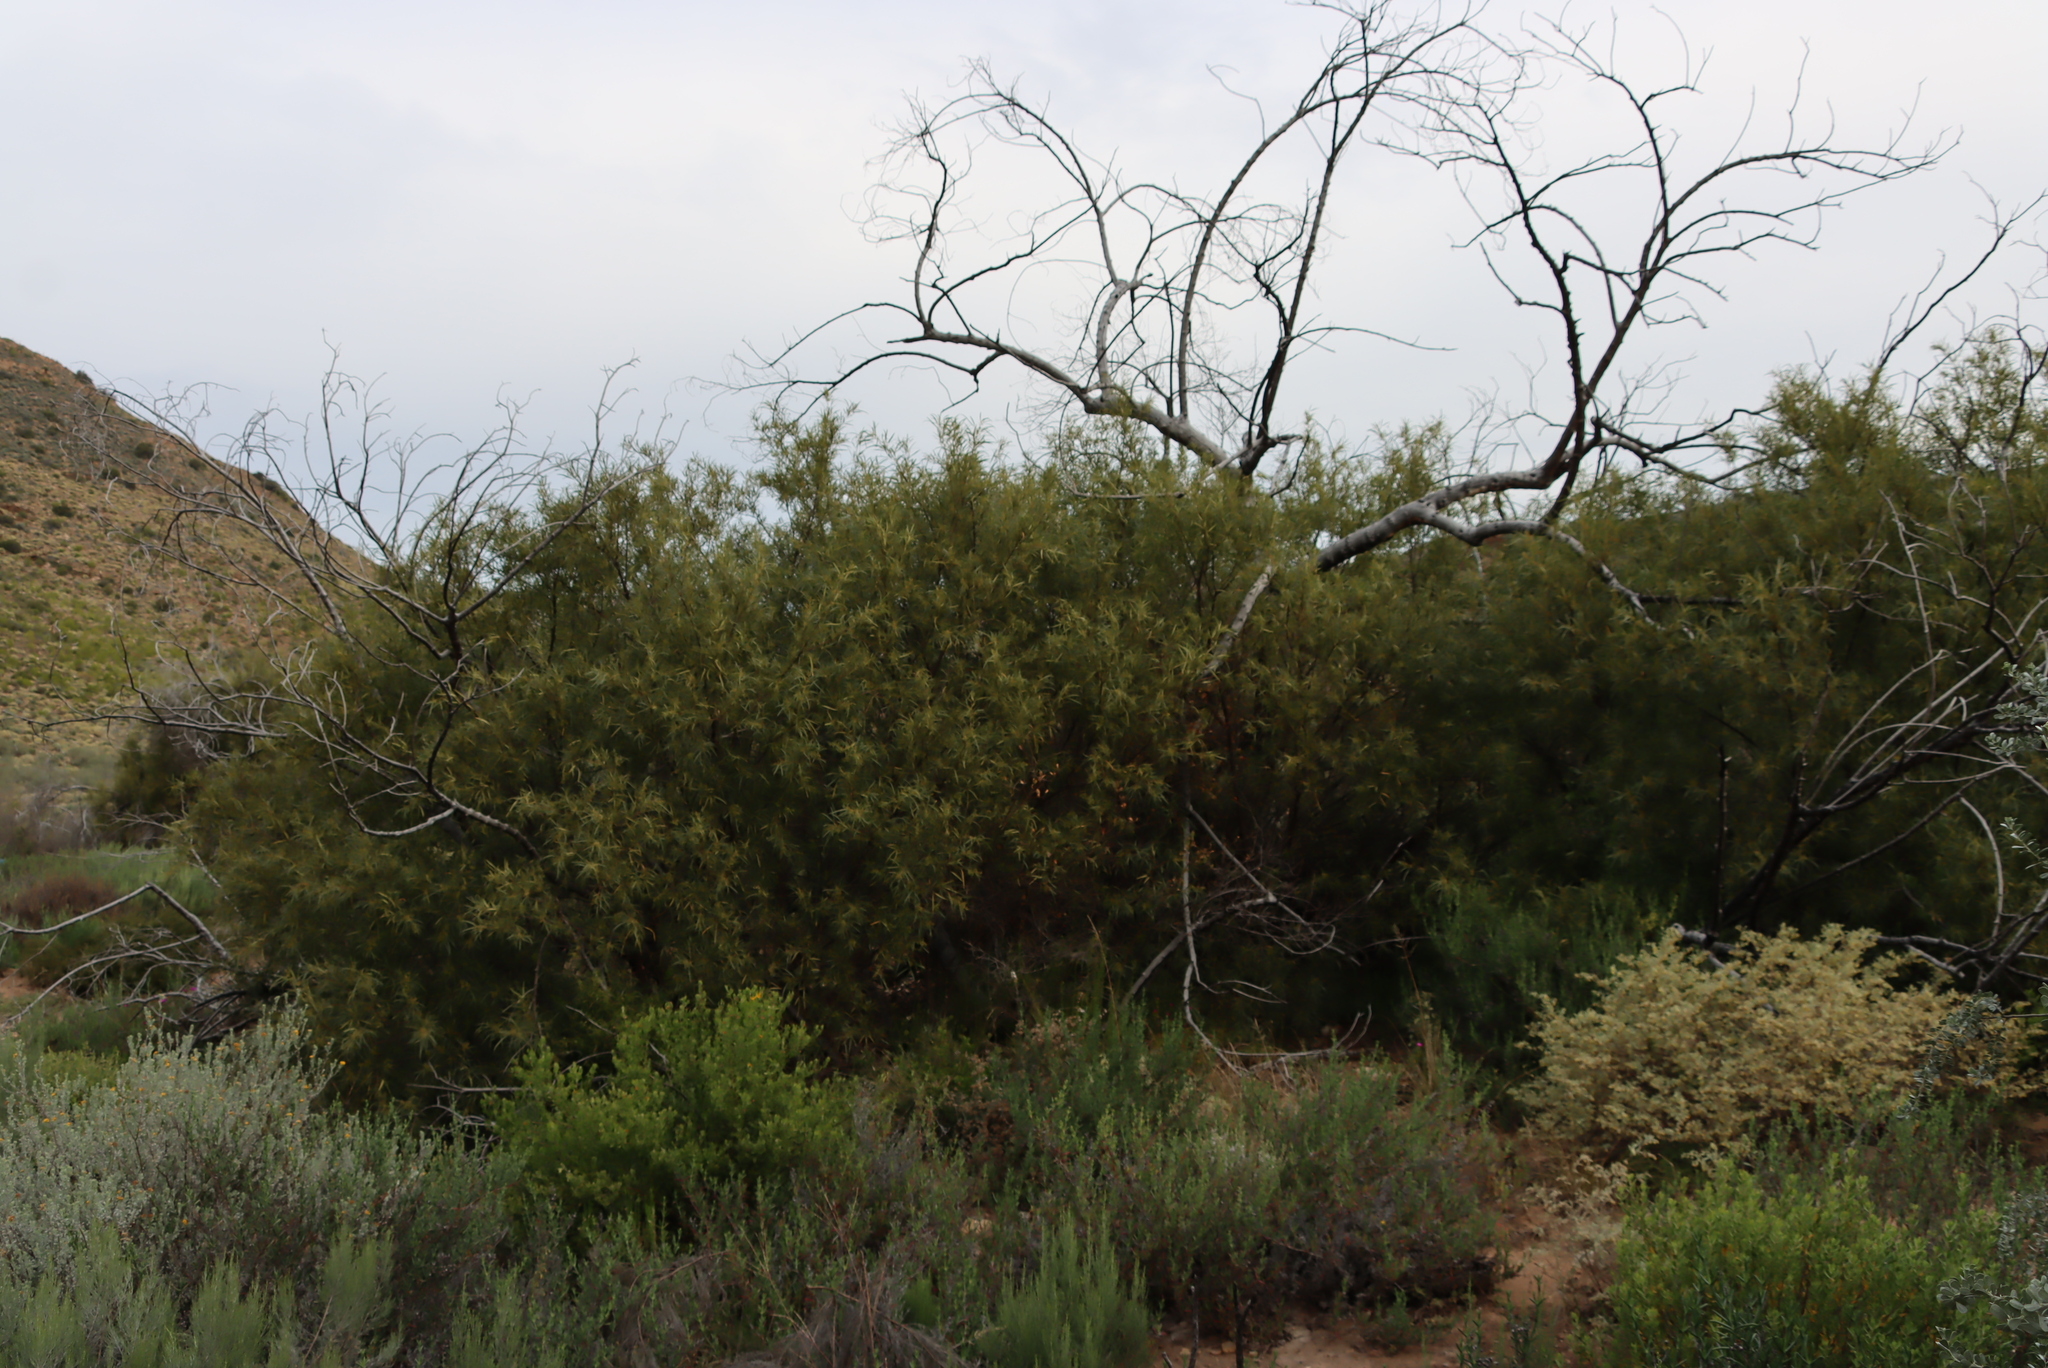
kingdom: Plantae
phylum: Tracheophyta
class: Magnoliopsida
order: Sapindales
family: Anacardiaceae
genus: Searsia
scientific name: Searsia lancea
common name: Cashew
